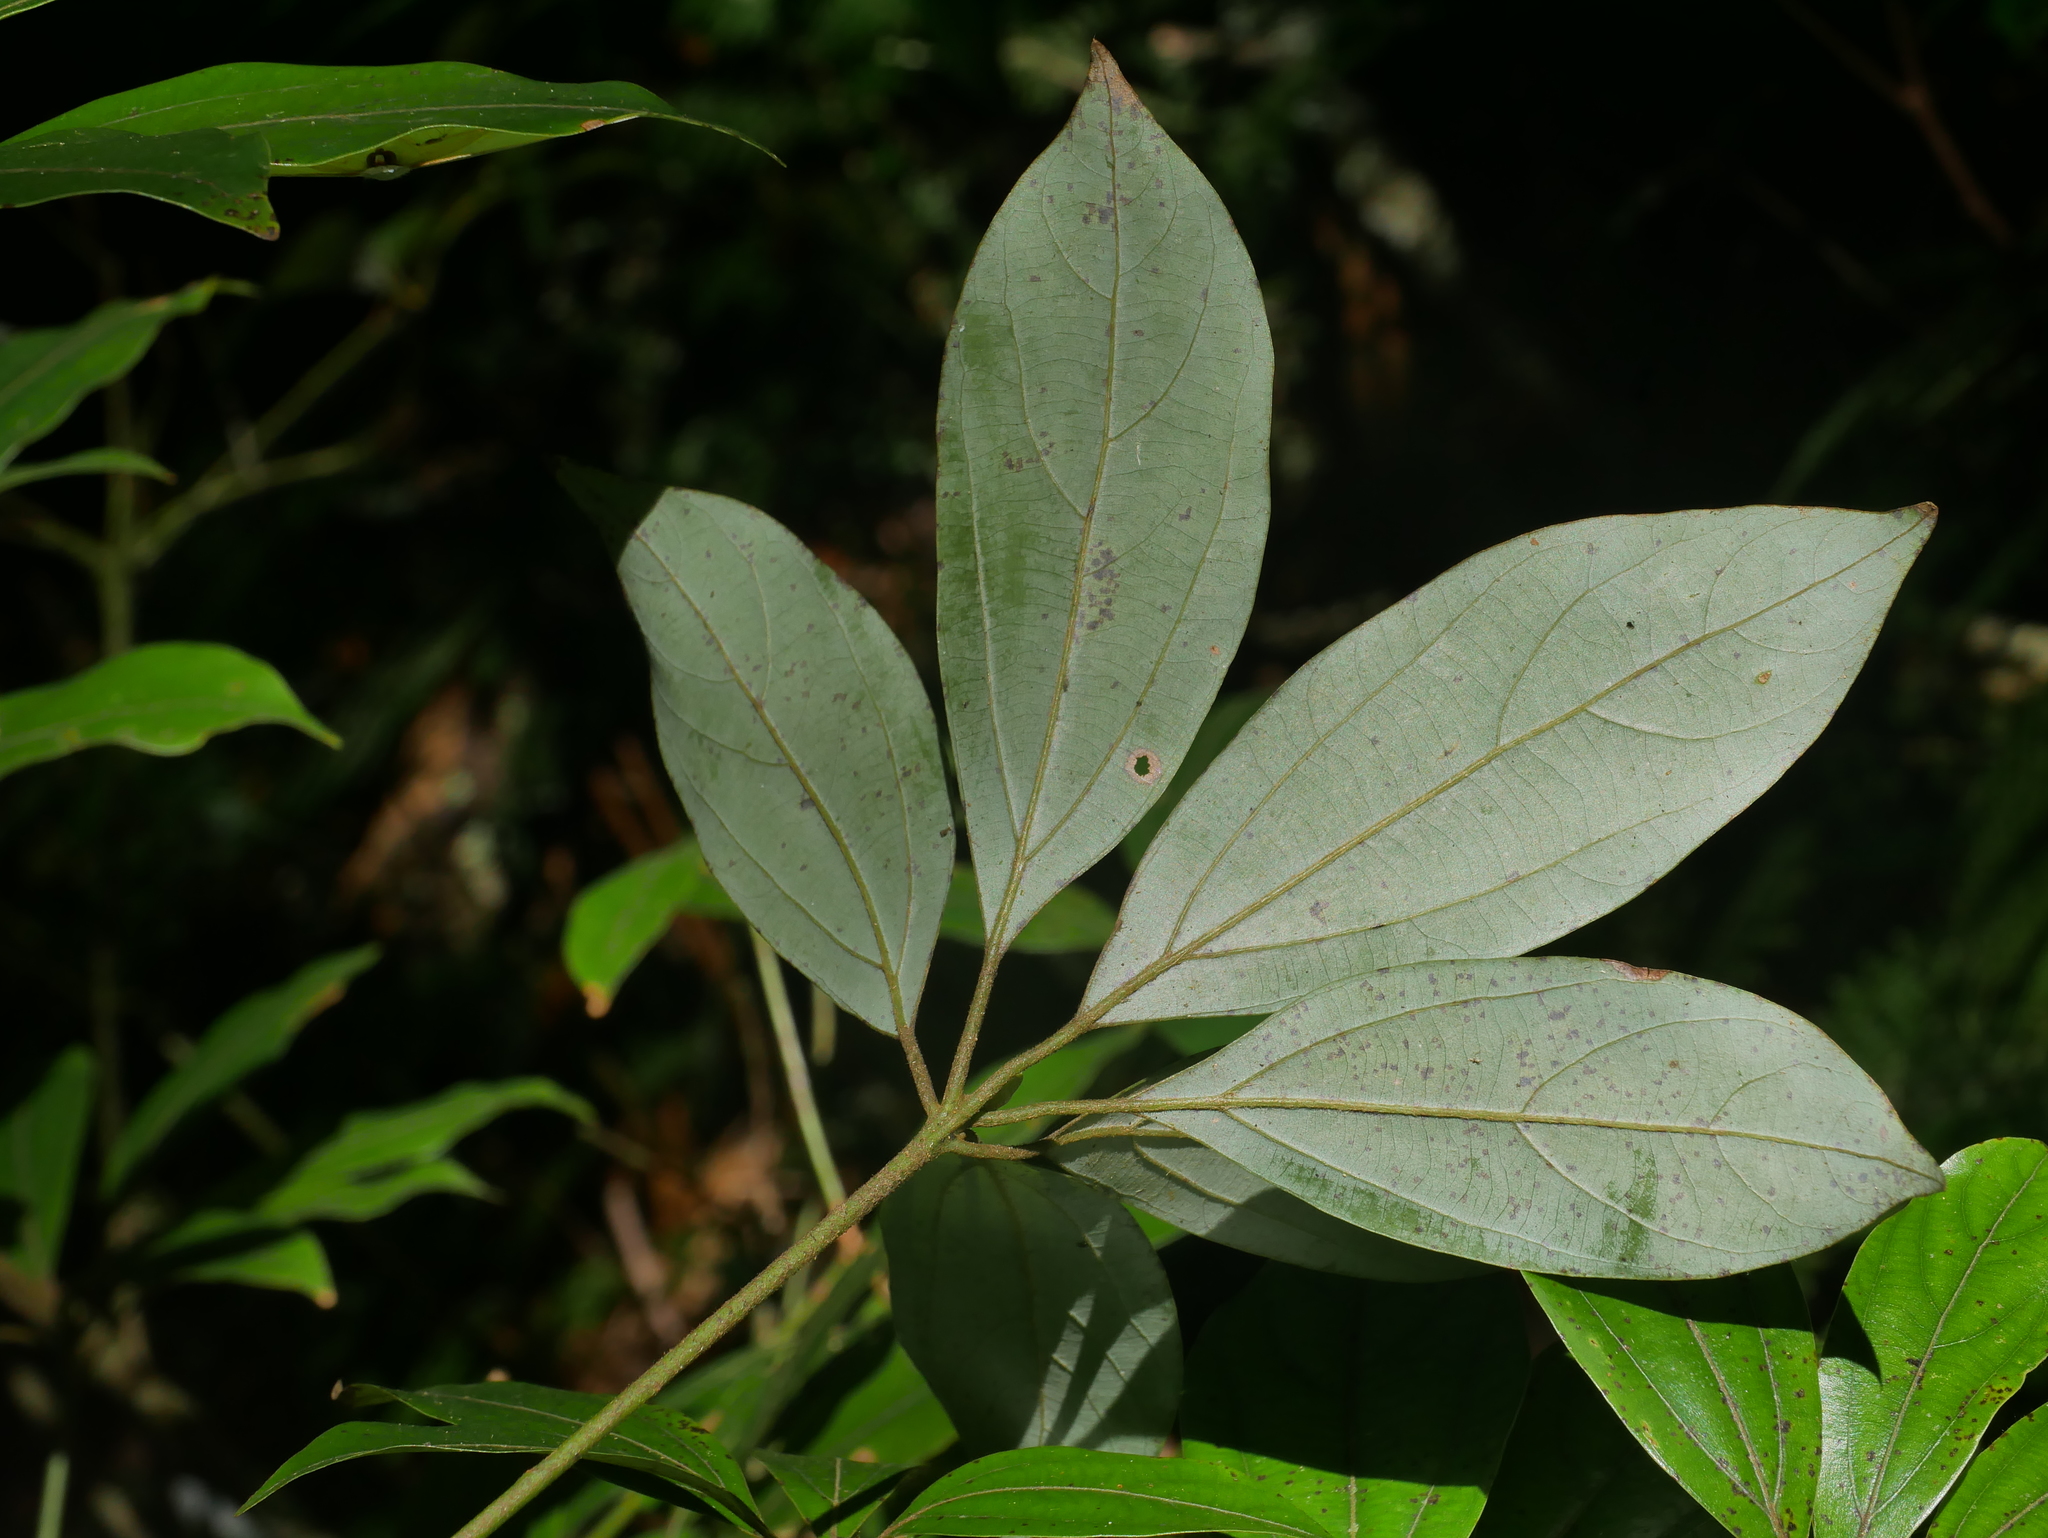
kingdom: Plantae
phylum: Tracheophyta
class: Magnoliopsida
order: Laurales
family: Lauraceae
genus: Neolitsea
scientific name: Neolitsea variabillima
